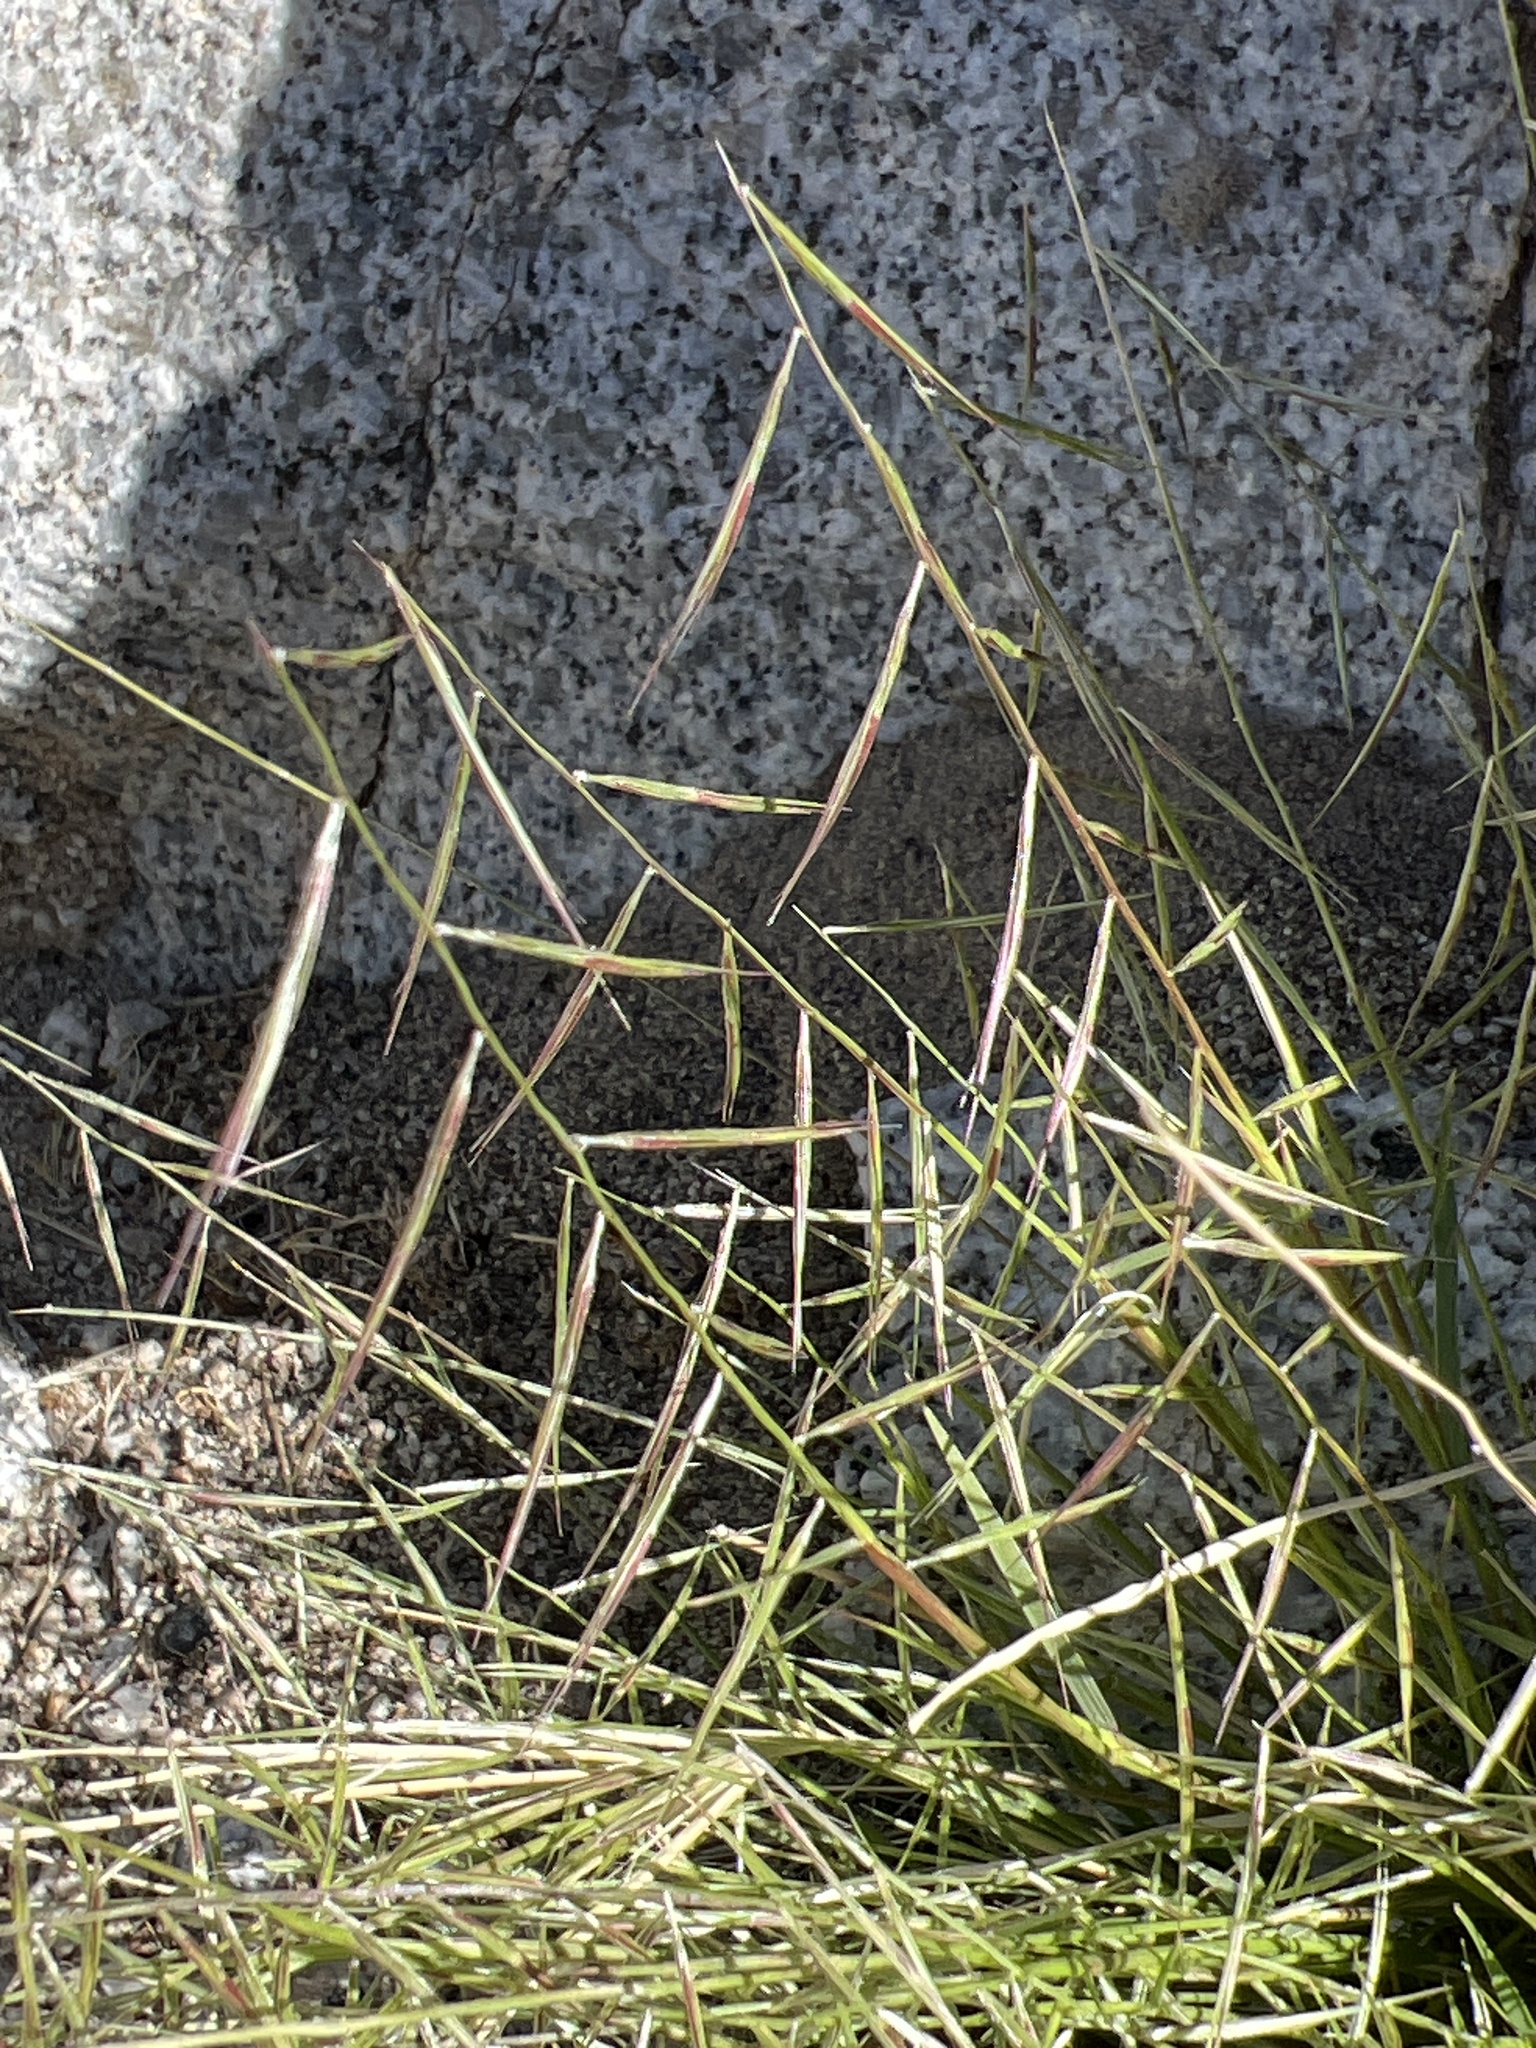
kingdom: Plantae
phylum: Tracheophyta
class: Liliopsida
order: Poales
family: Poaceae
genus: Bouteloua
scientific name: Bouteloua aristidoides
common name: Needle grama
